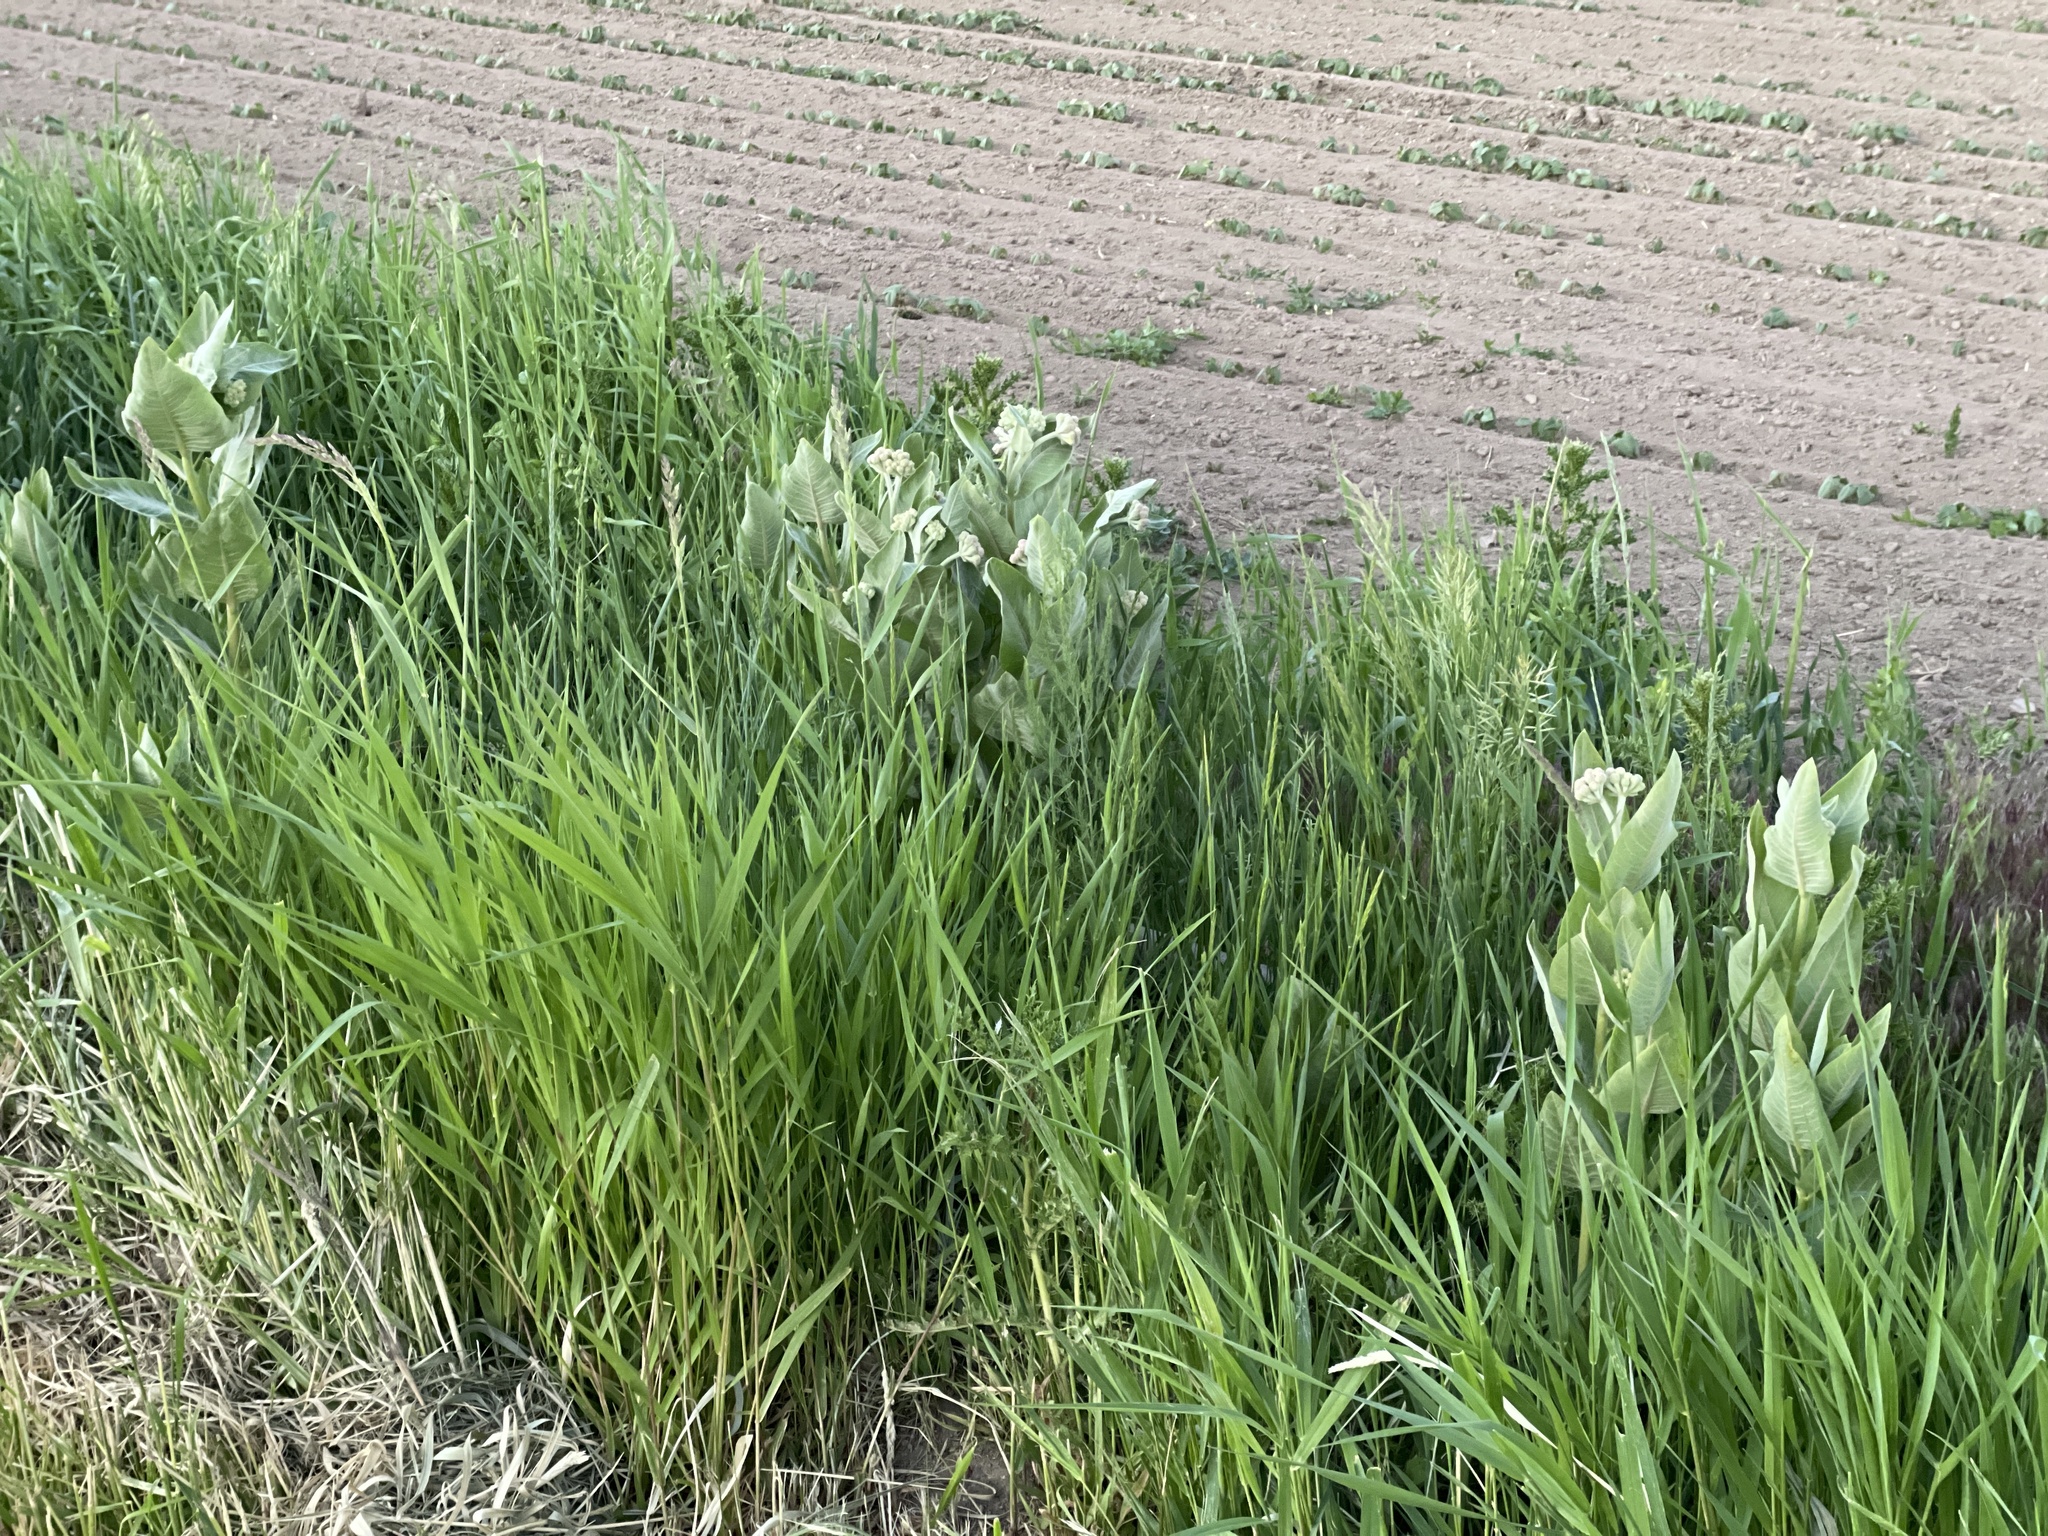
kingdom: Plantae
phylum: Tracheophyta
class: Magnoliopsida
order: Gentianales
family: Apocynaceae
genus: Asclepias
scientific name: Asclepias speciosa
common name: Showy milkweed
